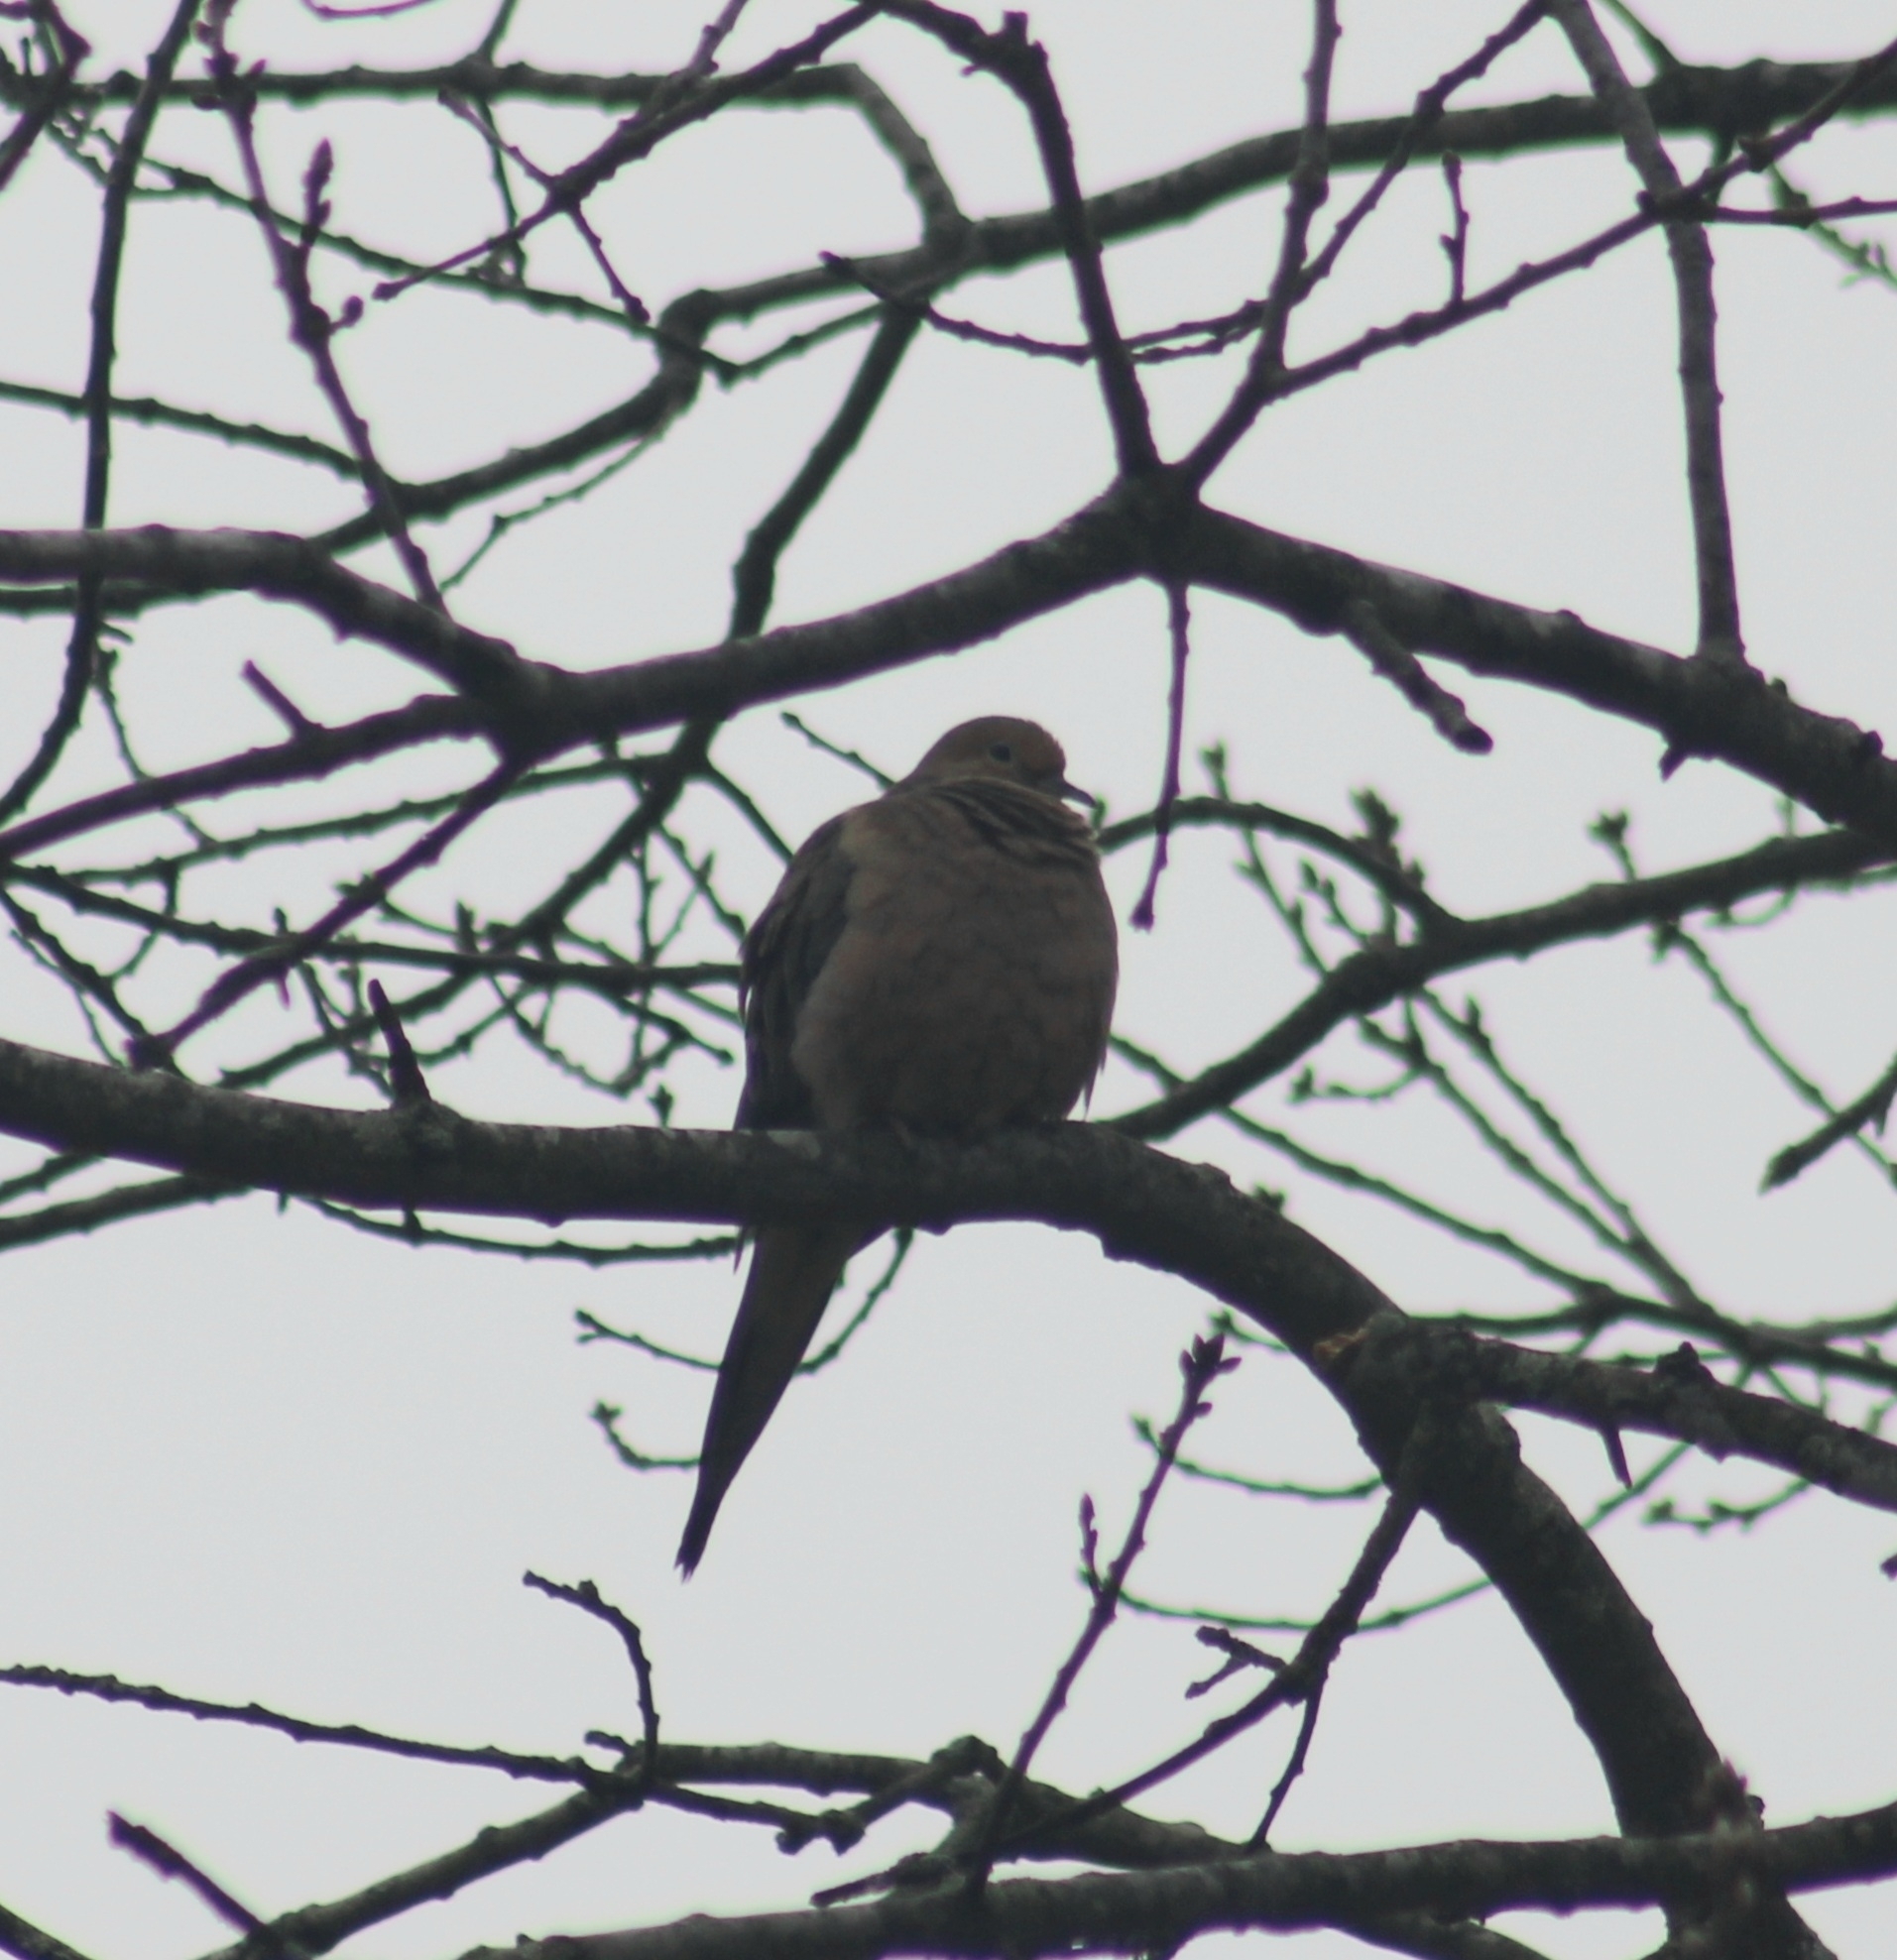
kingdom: Animalia
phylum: Chordata
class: Aves
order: Columbiformes
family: Columbidae
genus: Zenaida
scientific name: Zenaida macroura
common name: Mourning dove
